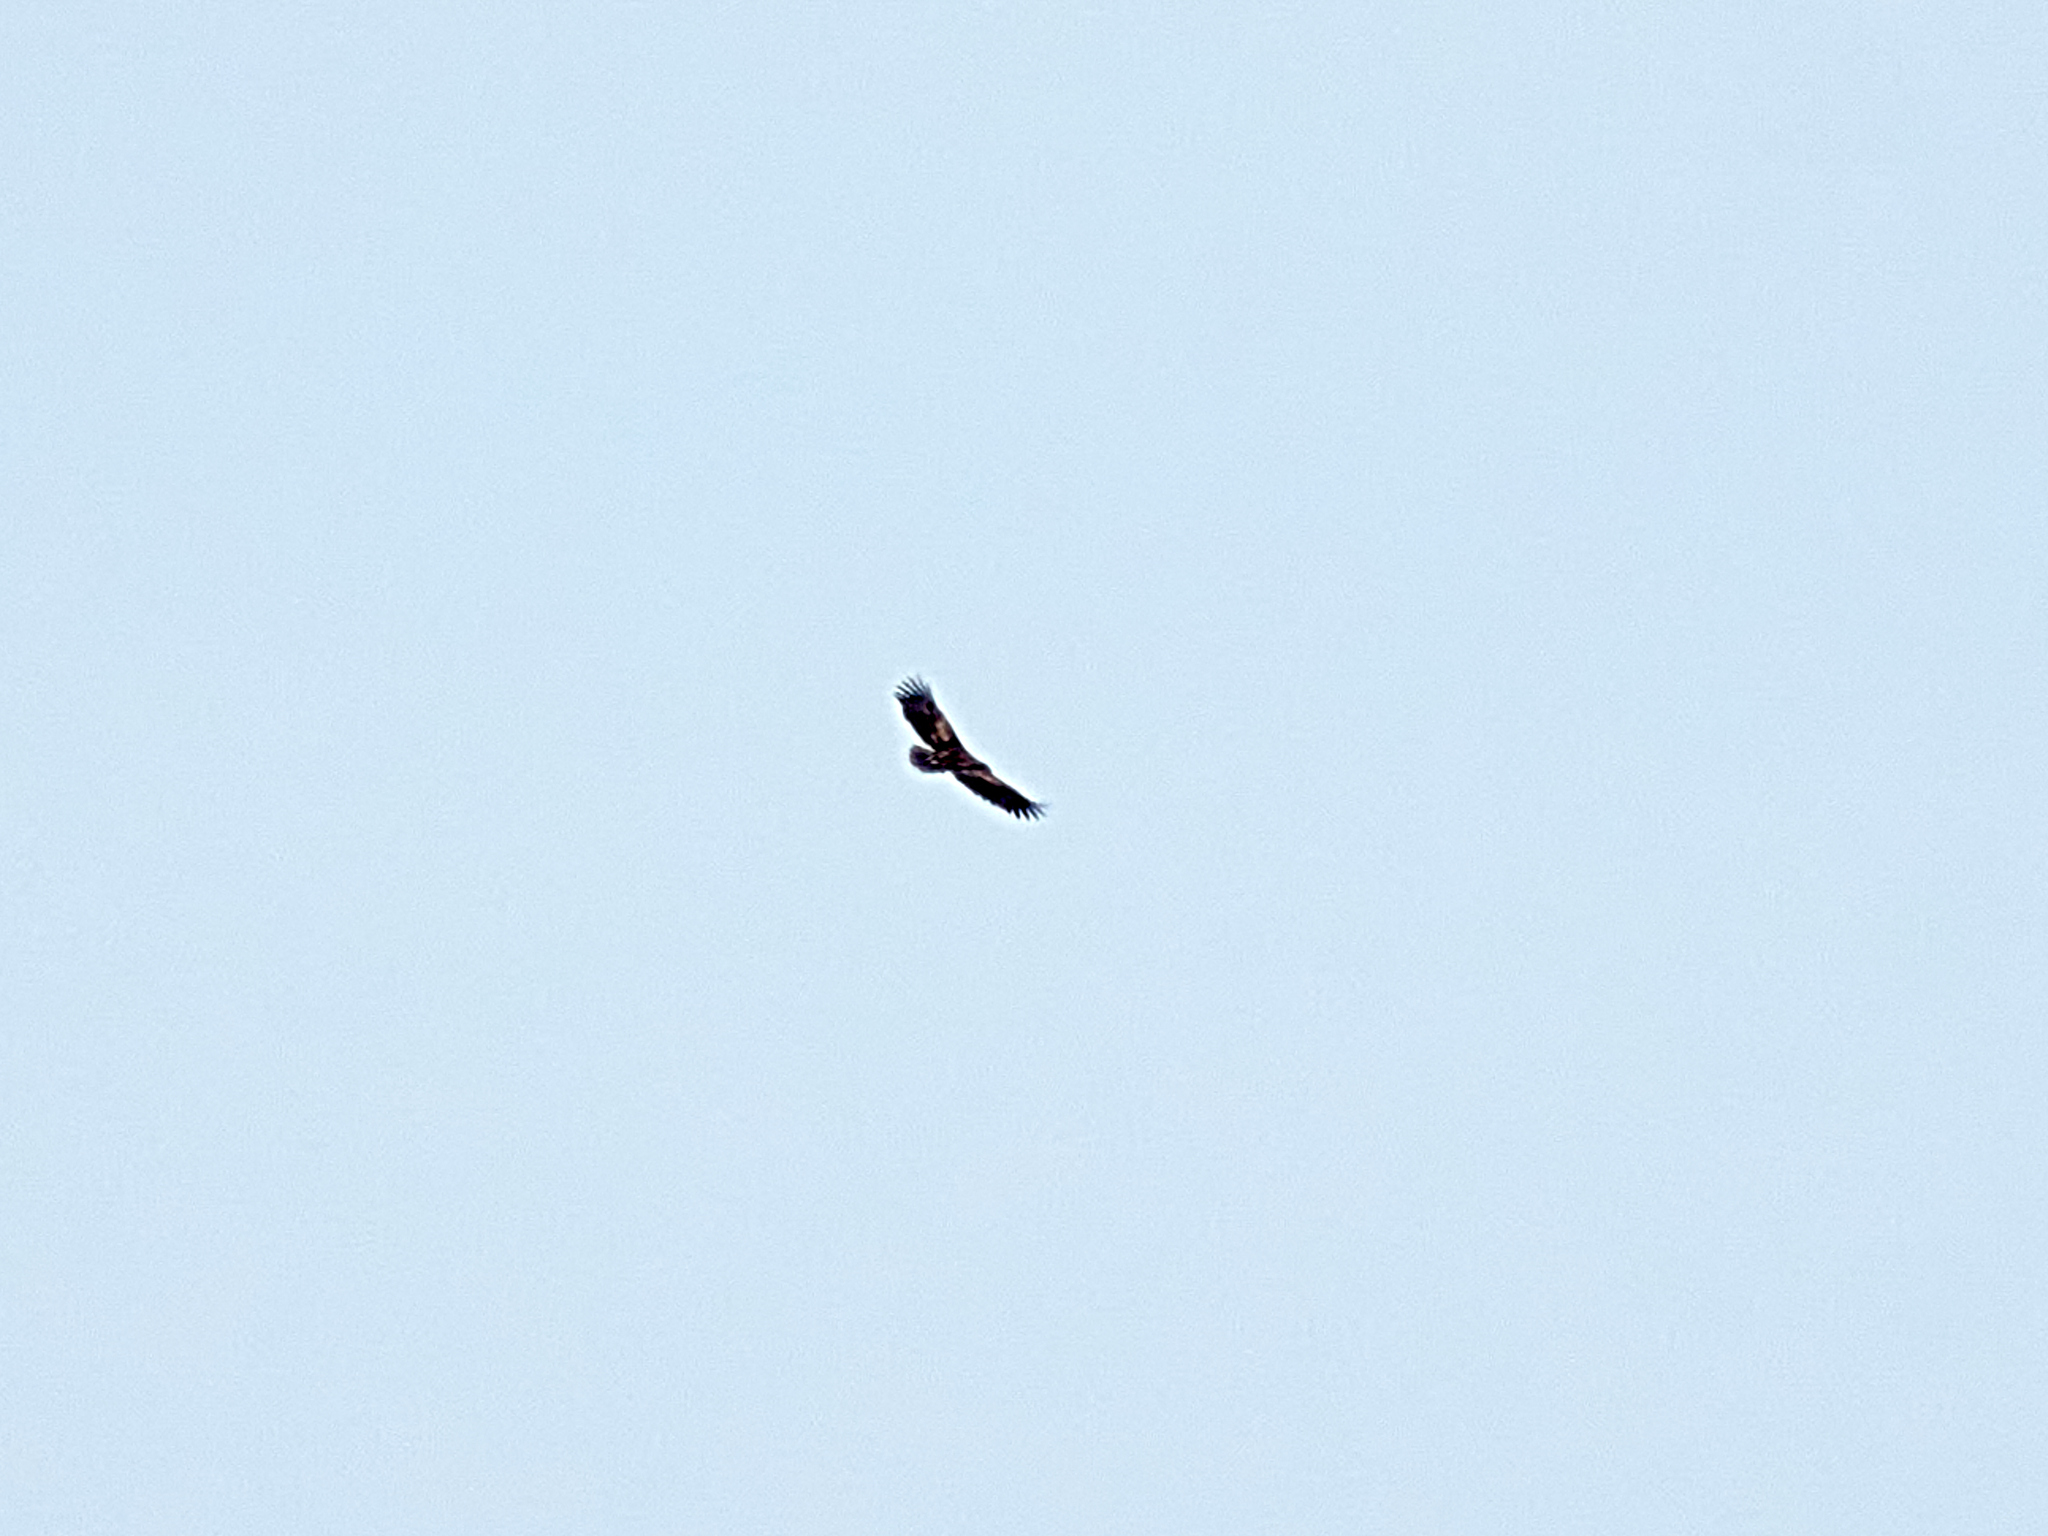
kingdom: Animalia
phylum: Chordata
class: Aves
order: Accipitriformes
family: Accipitridae
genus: Haliaeetus
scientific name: Haliaeetus albicilla
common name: White-tailed eagle
